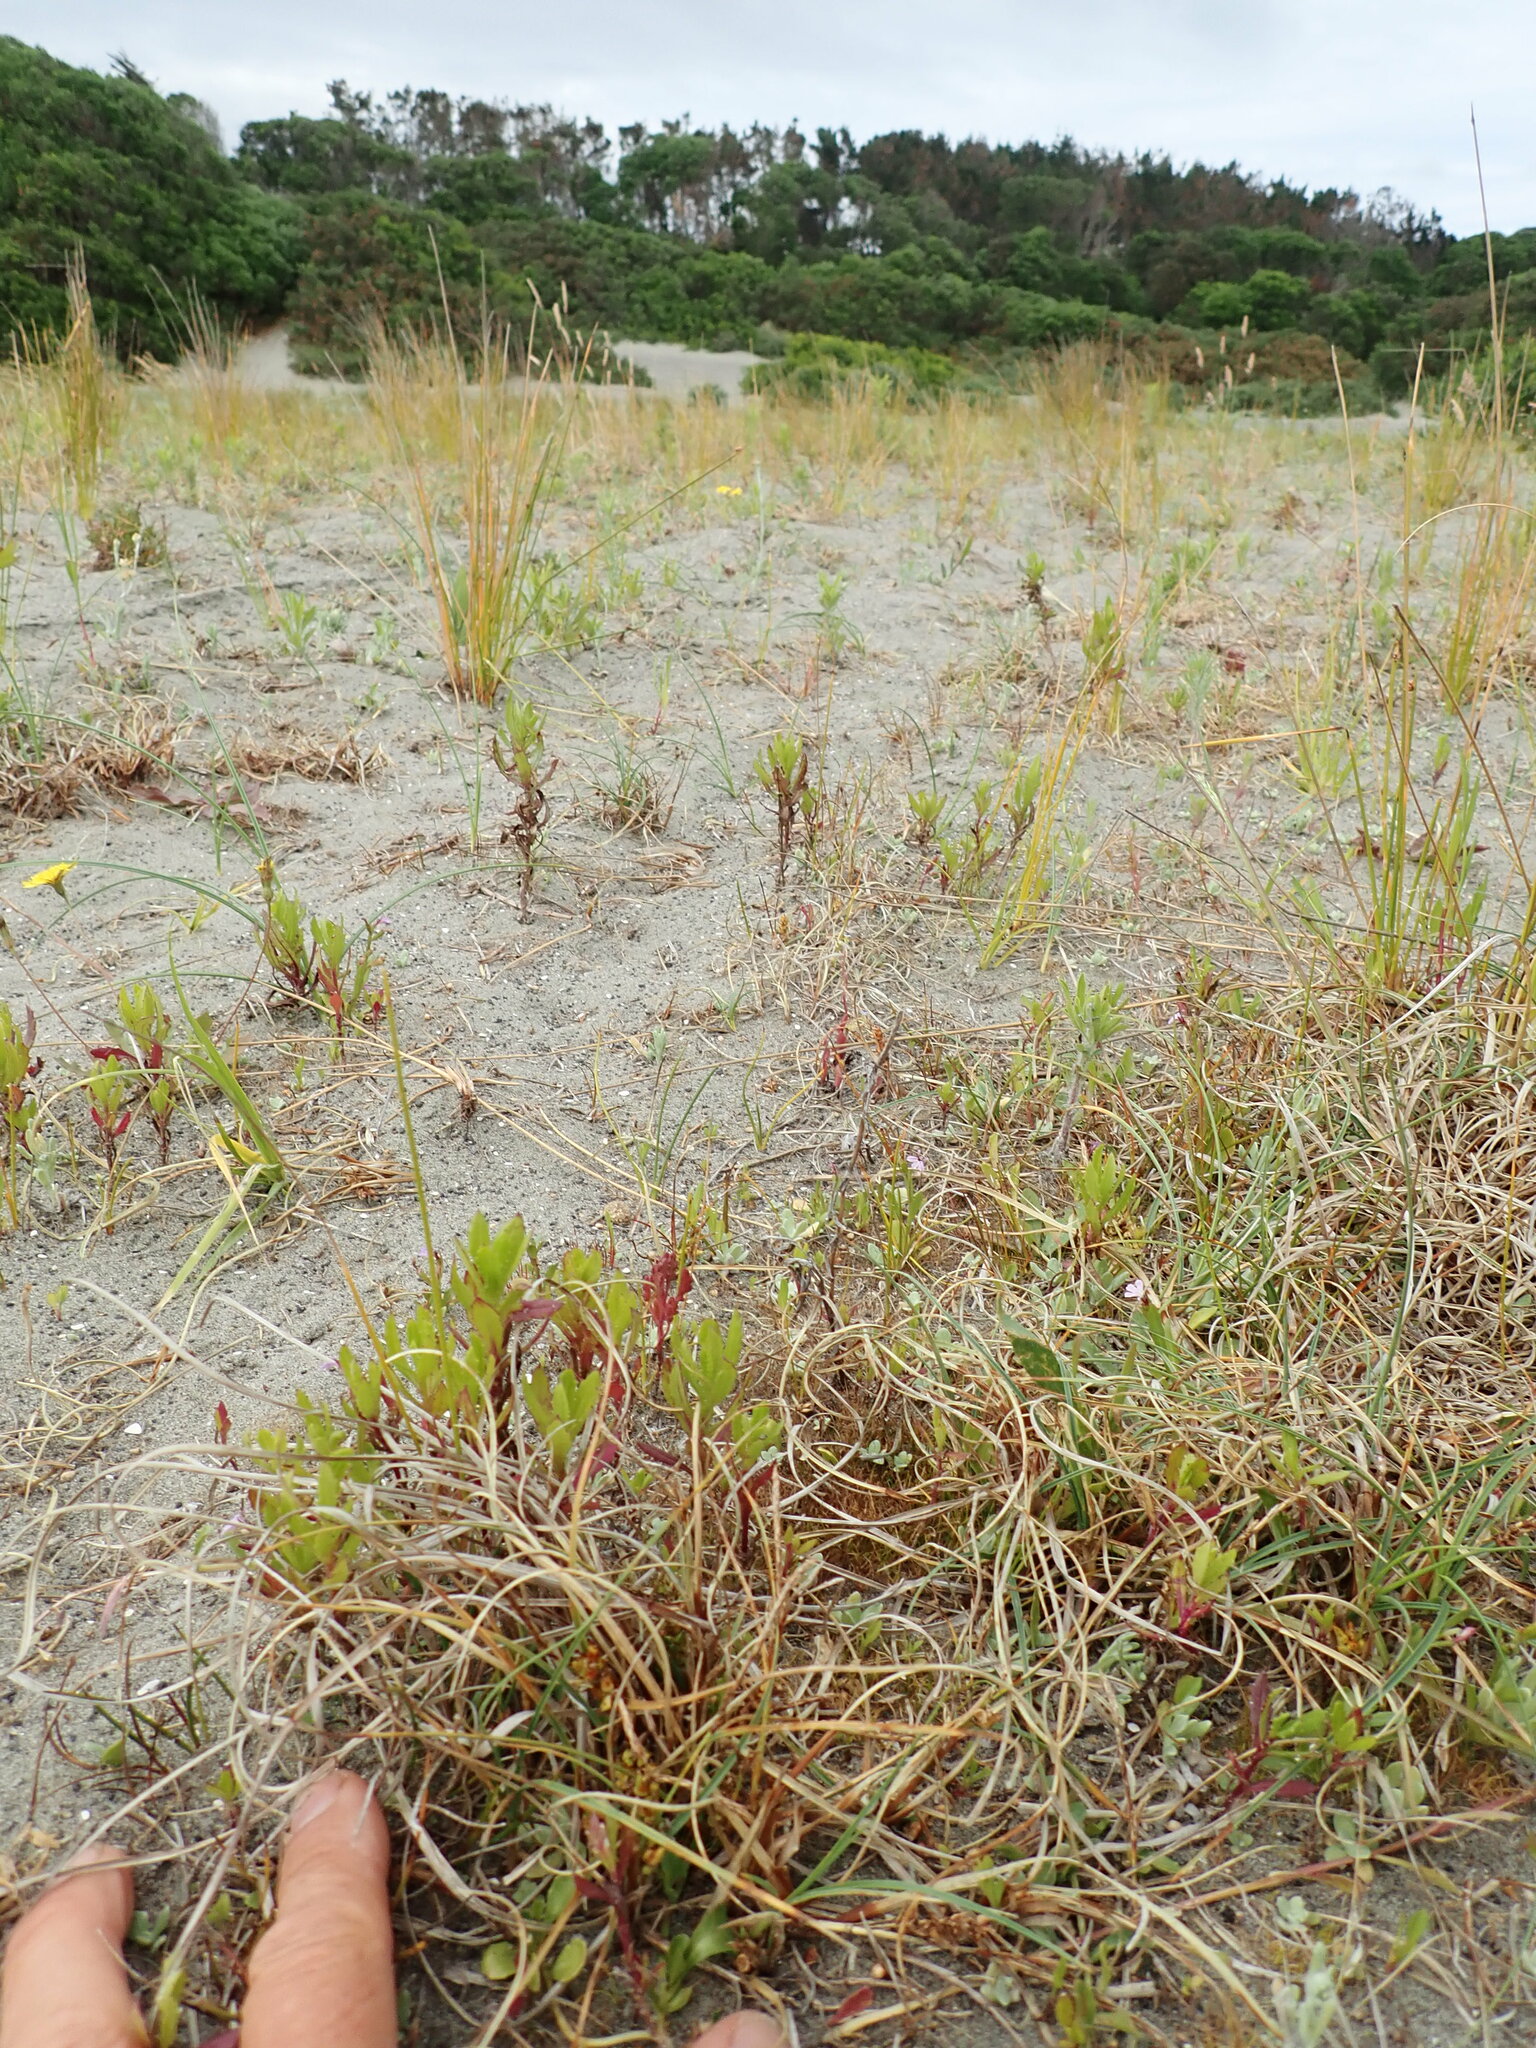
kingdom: Plantae
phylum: Tracheophyta
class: Magnoliopsida
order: Asterales
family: Asteraceae
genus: Senecio
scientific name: Senecio glastifolius
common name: Woad-leaved ragwort
